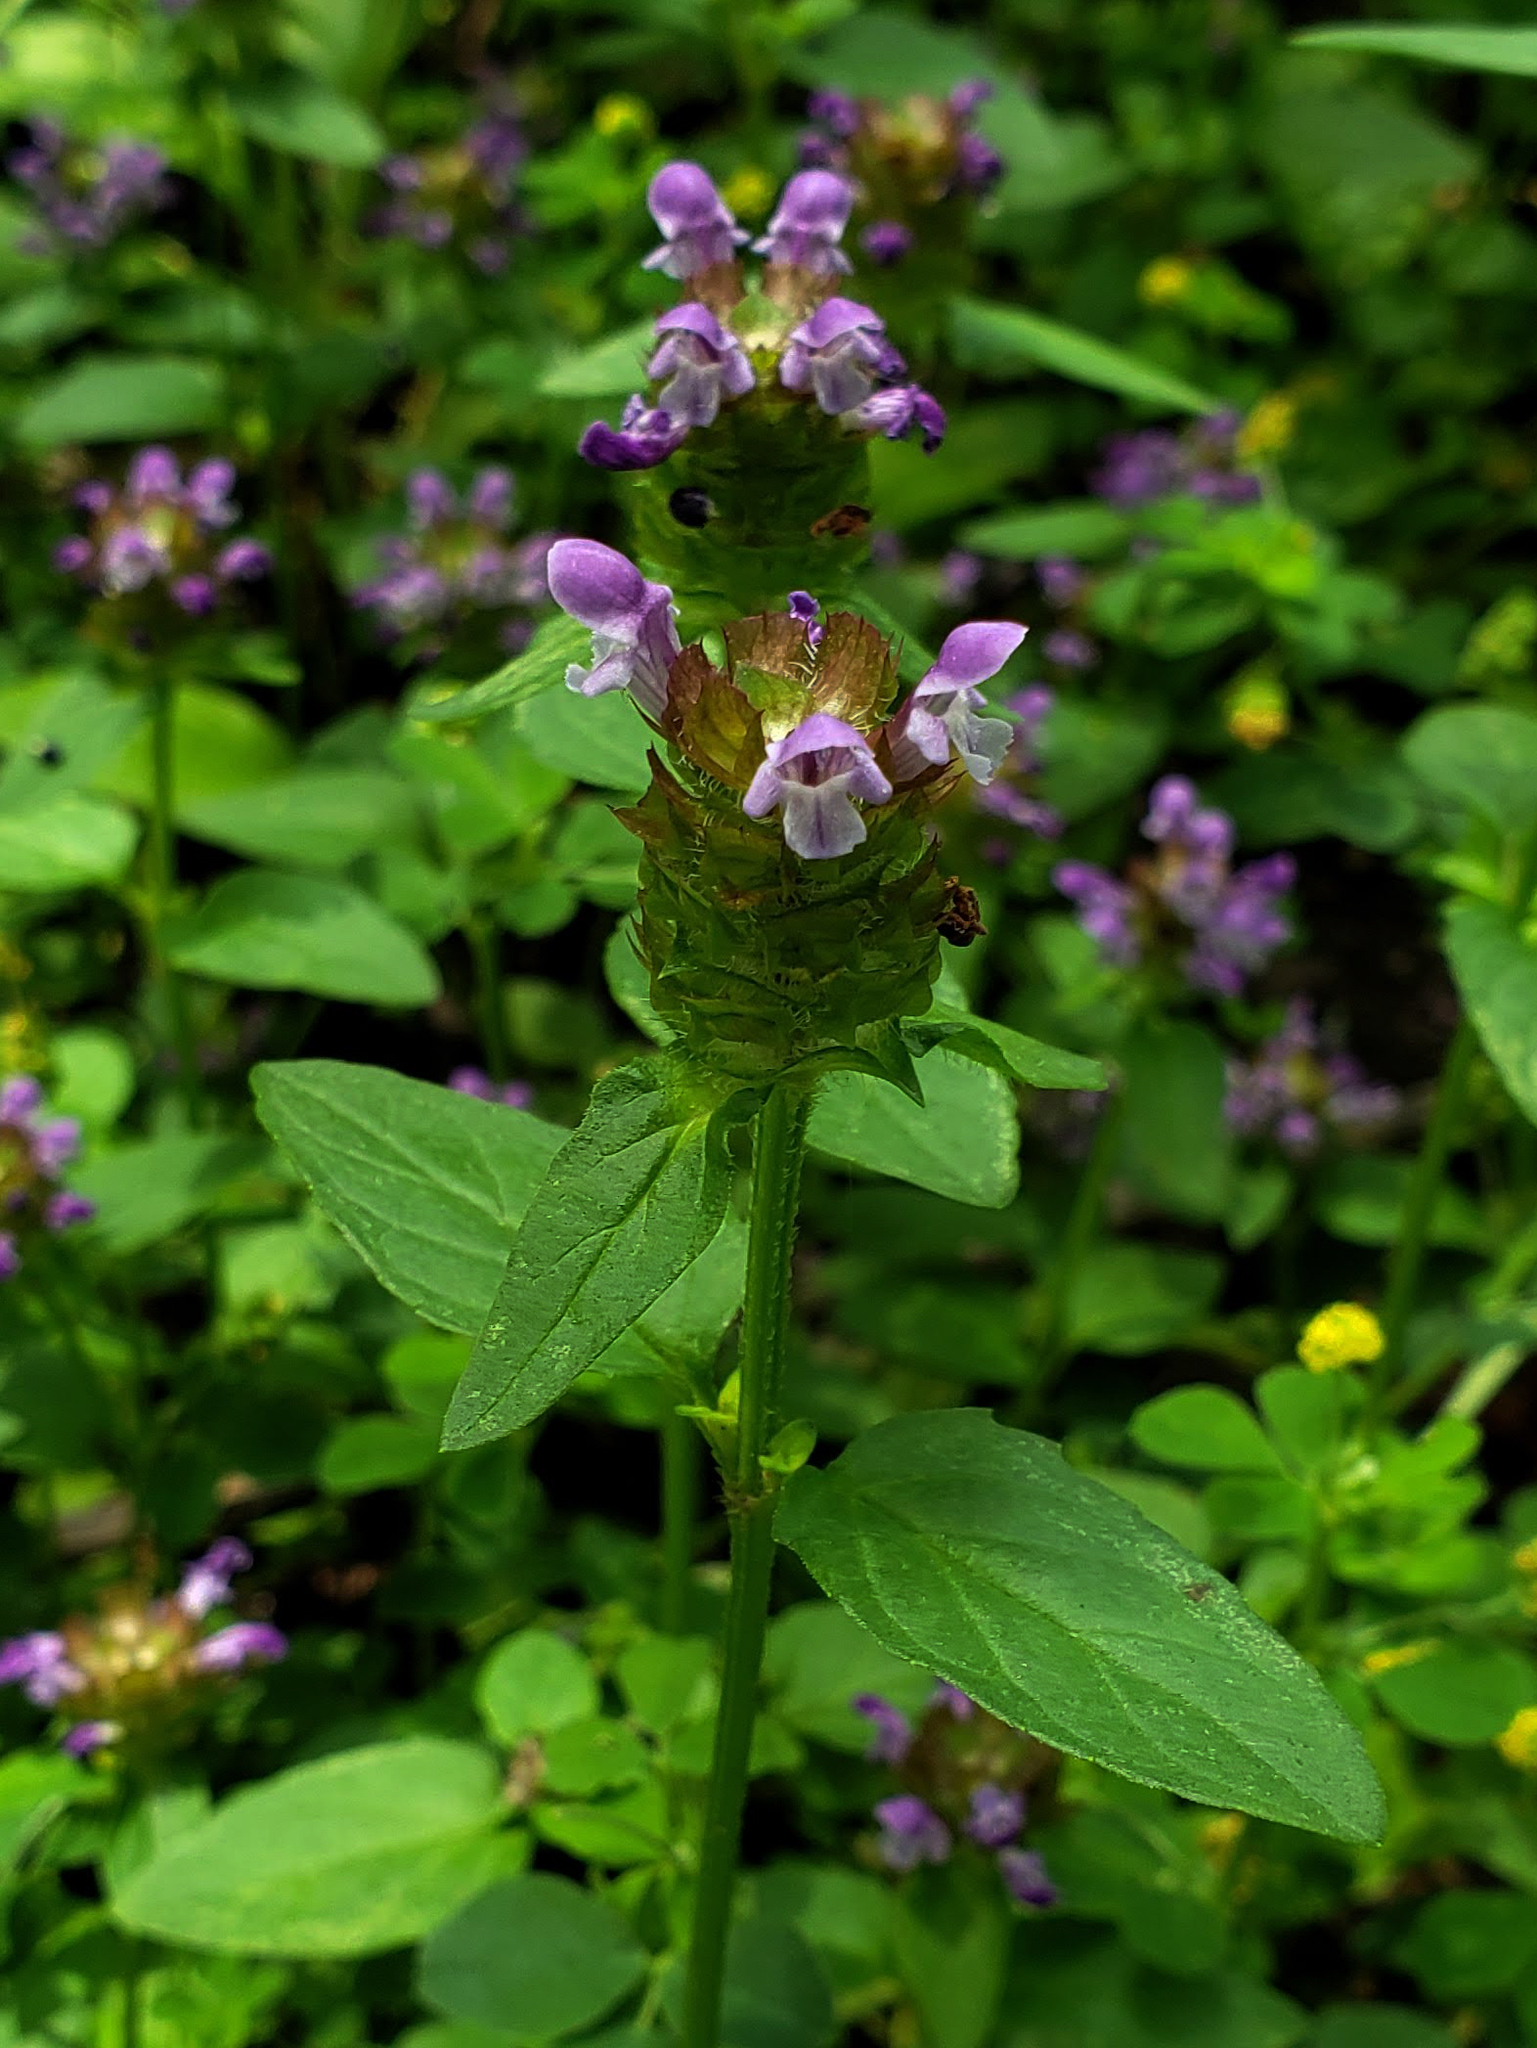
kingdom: Plantae
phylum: Tracheophyta
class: Magnoliopsida
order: Lamiales
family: Lamiaceae
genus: Prunella
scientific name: Prunella vulgaris
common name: Heal-all
